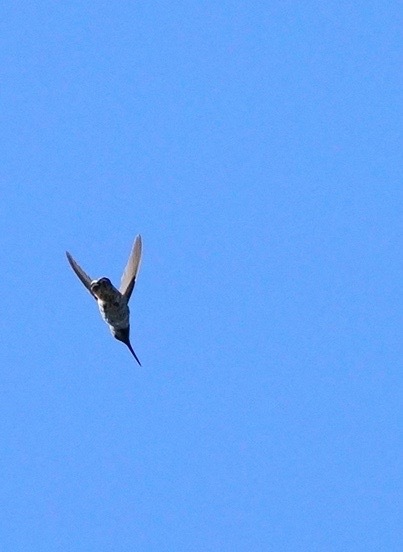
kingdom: Animalia
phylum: Chordata
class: Aves
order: Apodiformes
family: Trochilidae
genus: Calypte
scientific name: Calypte anna
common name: Anna's hummingbird
